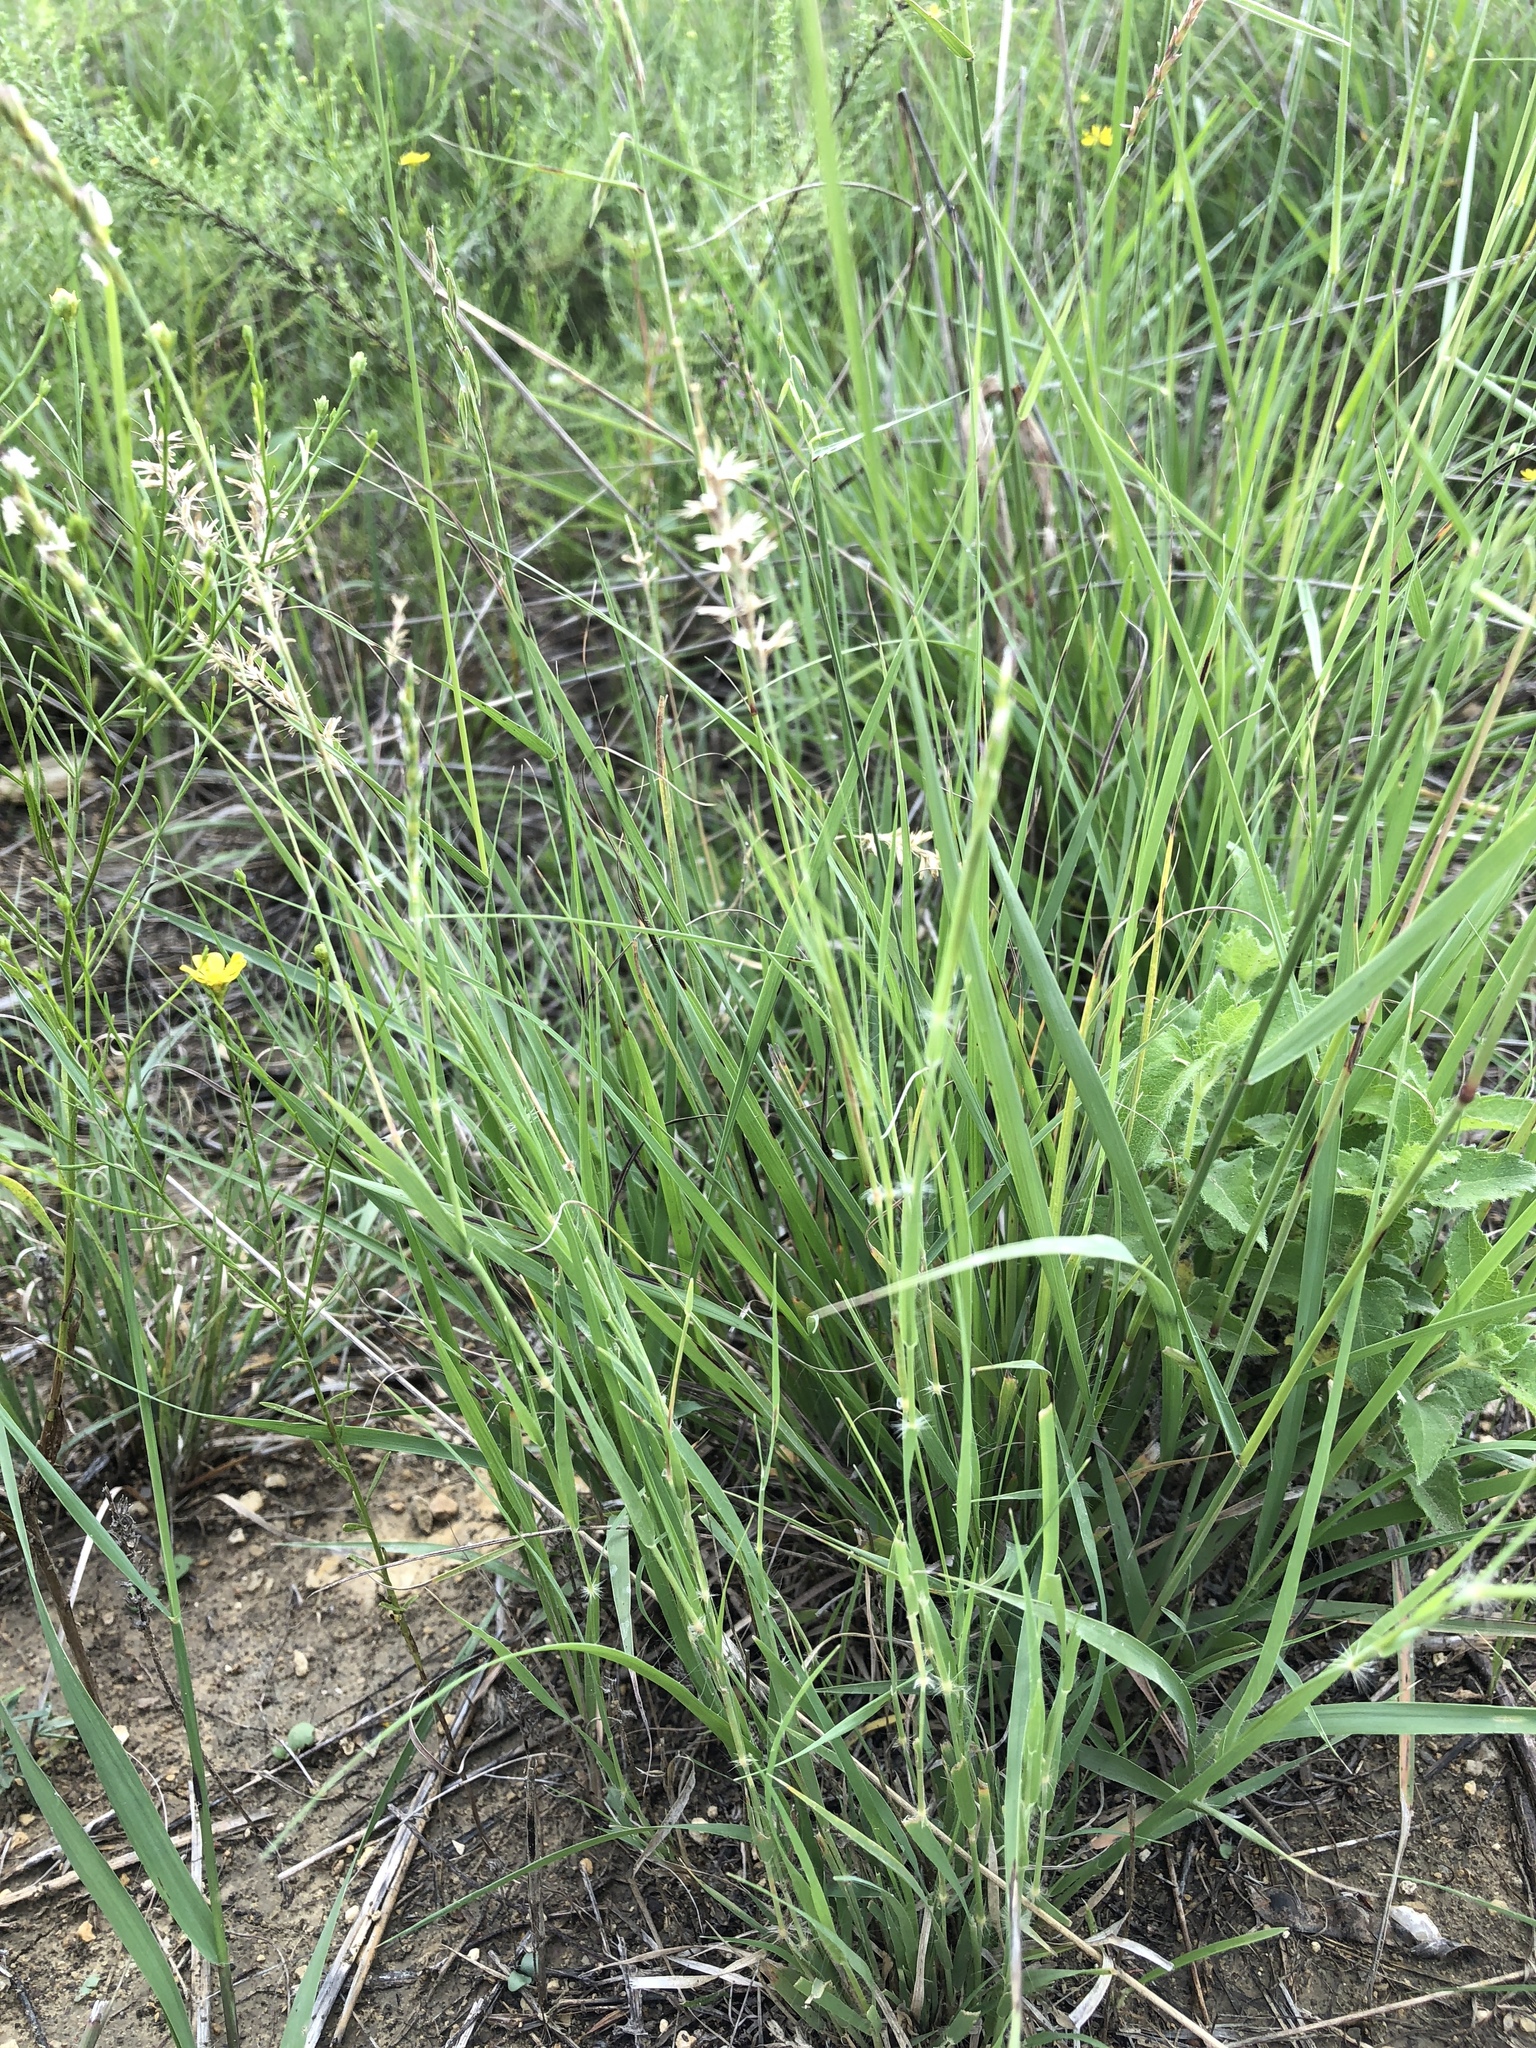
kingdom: Plantae
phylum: Tracheophyta
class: Liliopsida
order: Poales
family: Poaceae
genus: Hilaria
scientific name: Hilaria belangeri
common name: Curly-mesquite
